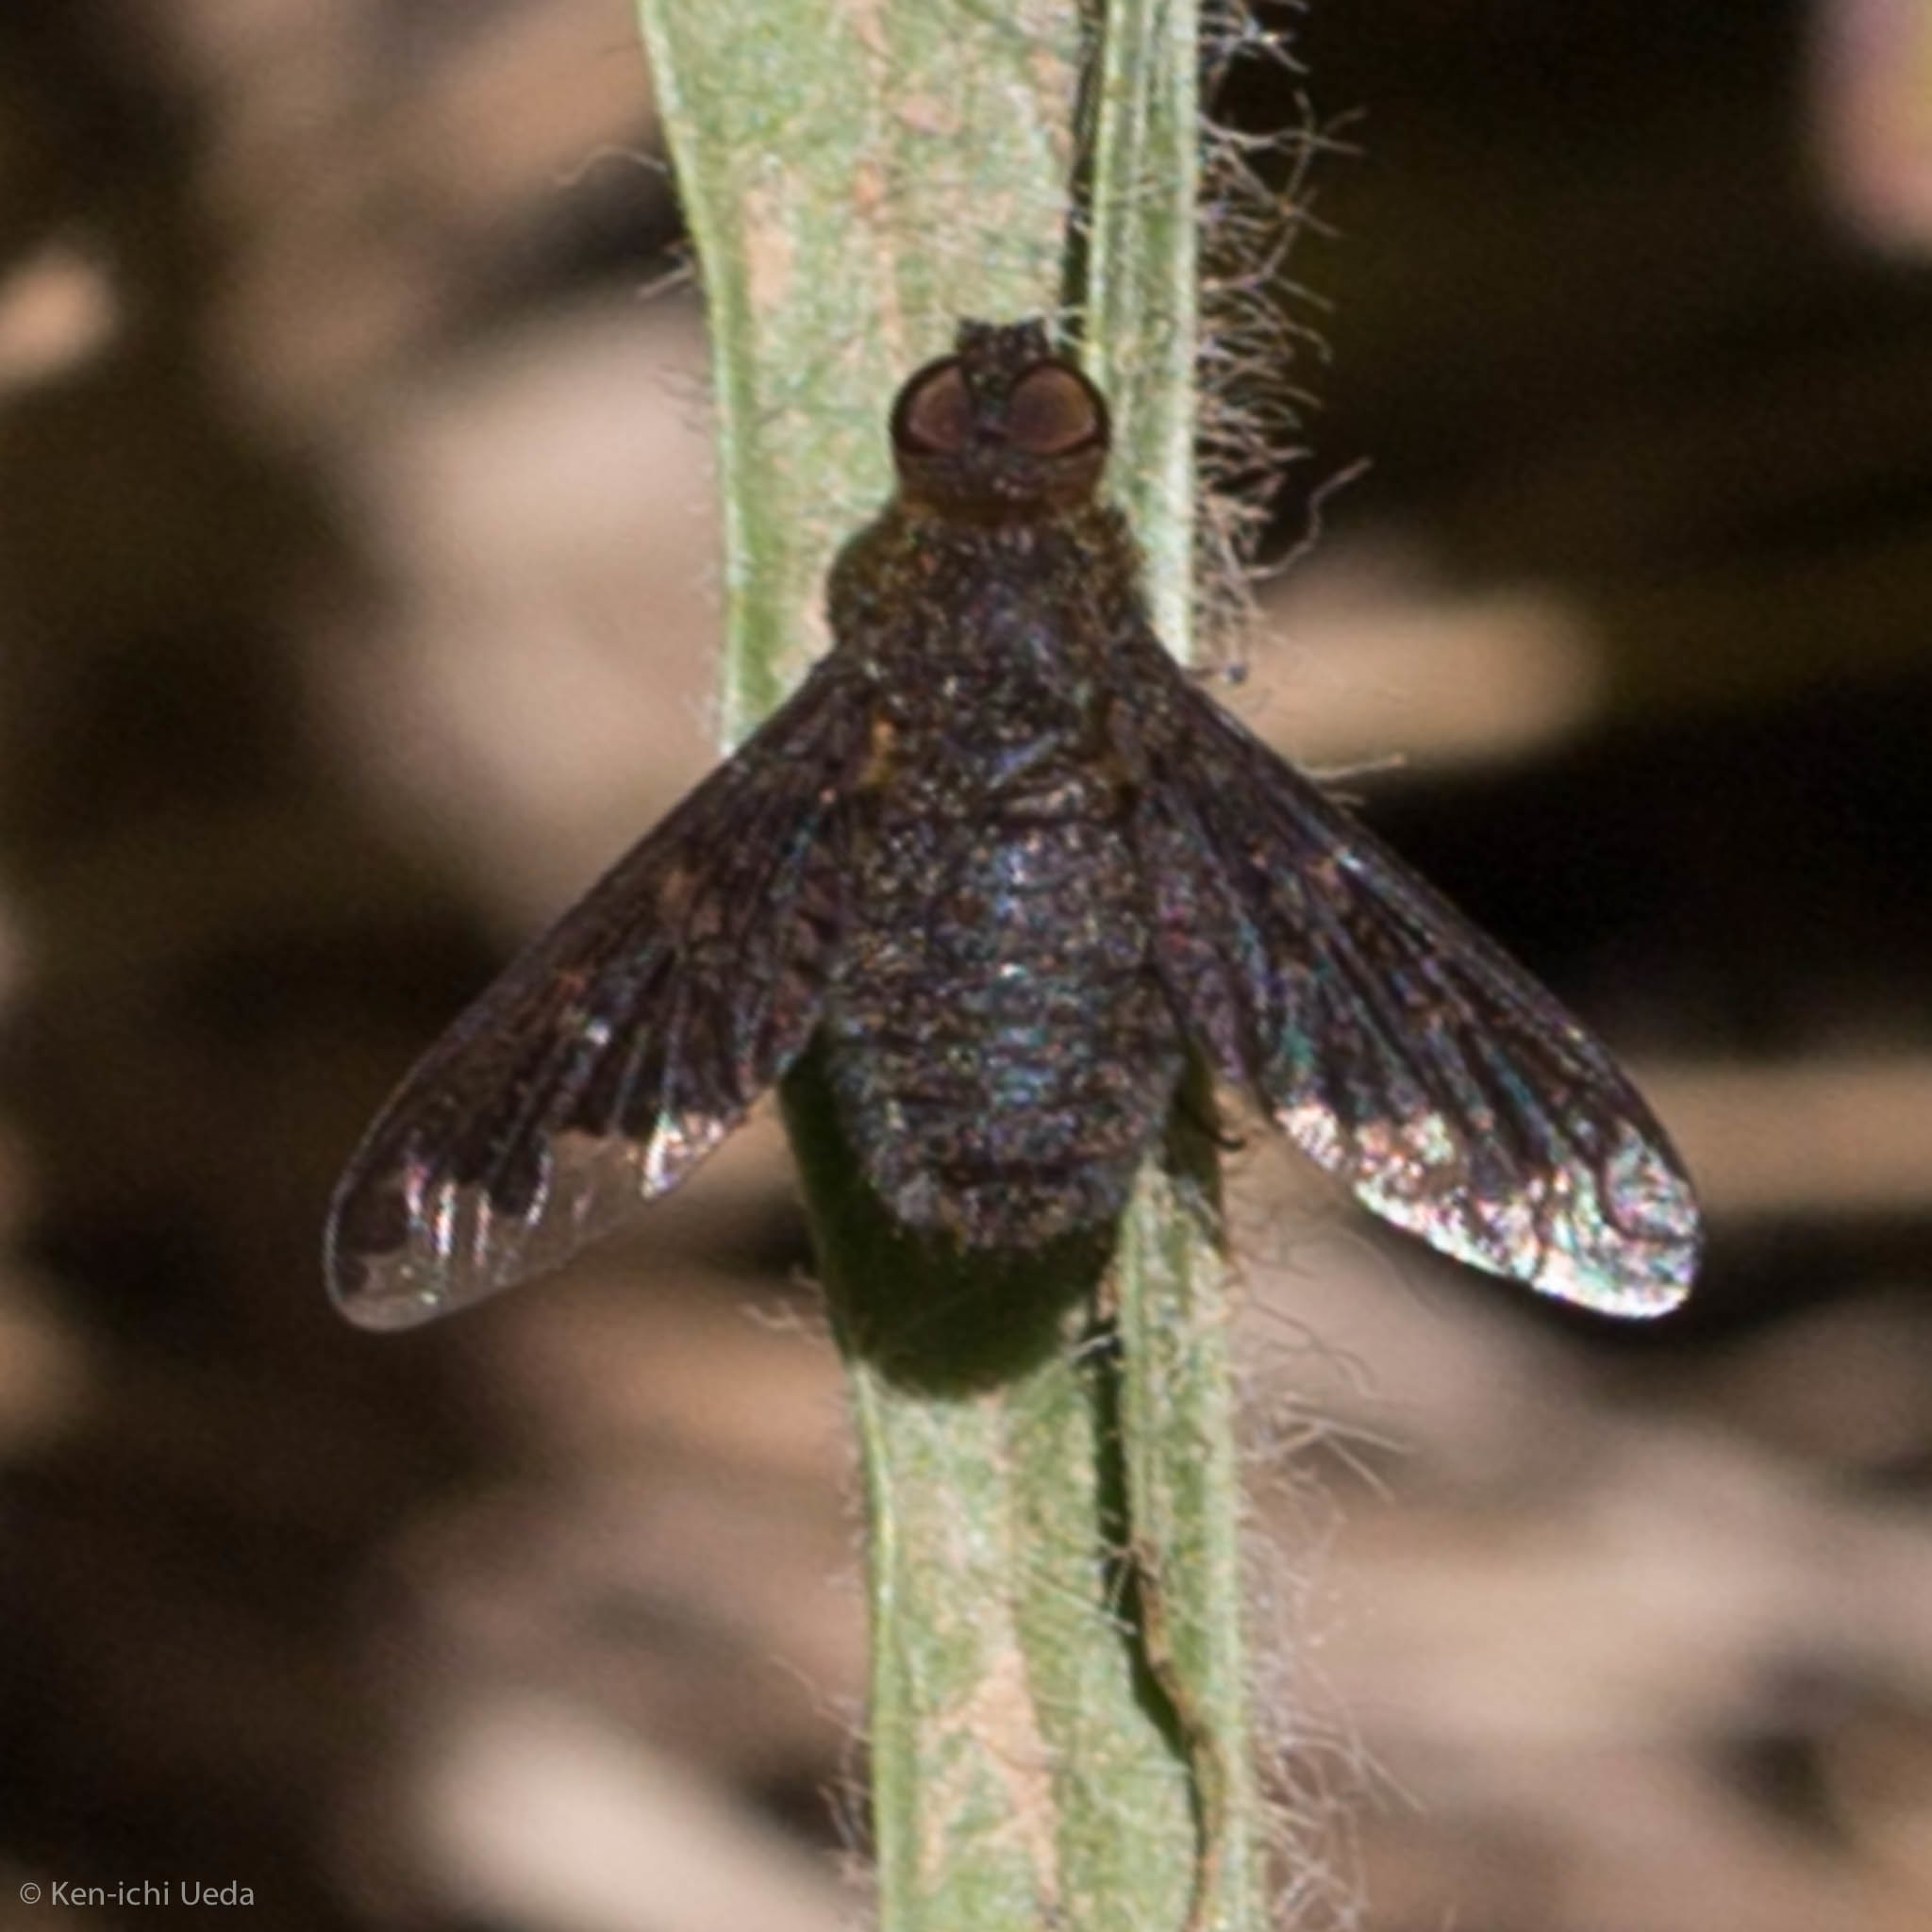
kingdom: Animalia
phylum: Arthropoda
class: Insecta
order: Diptera
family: Bombyliidae
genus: Hemipenthes
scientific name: Hemipenthes sinuosus
